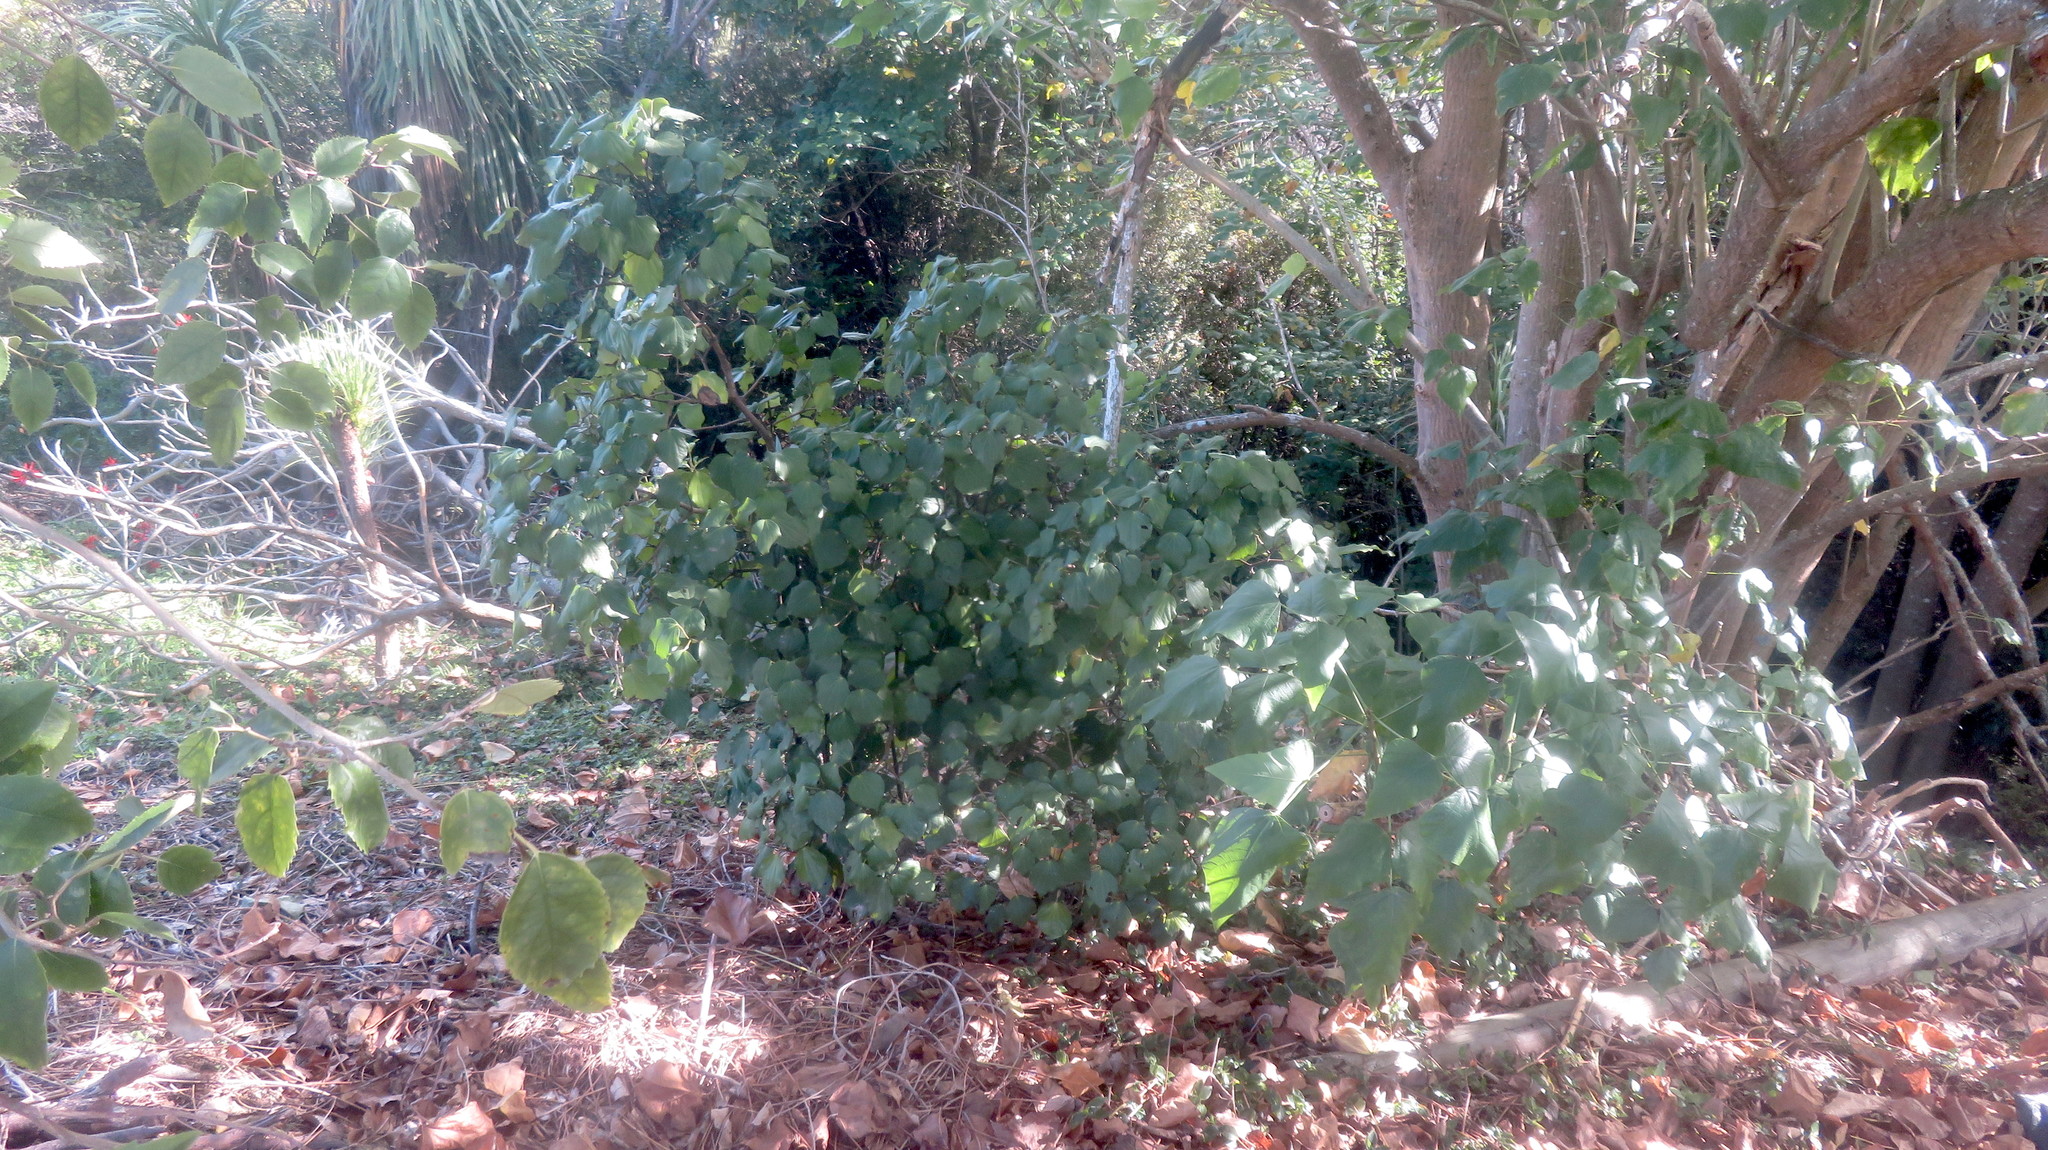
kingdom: Plantae
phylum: Tracheophyta
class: Magnoliopsida
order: Piperales
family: Piperaceae
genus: Macropiper
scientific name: Macropiper excelsum
